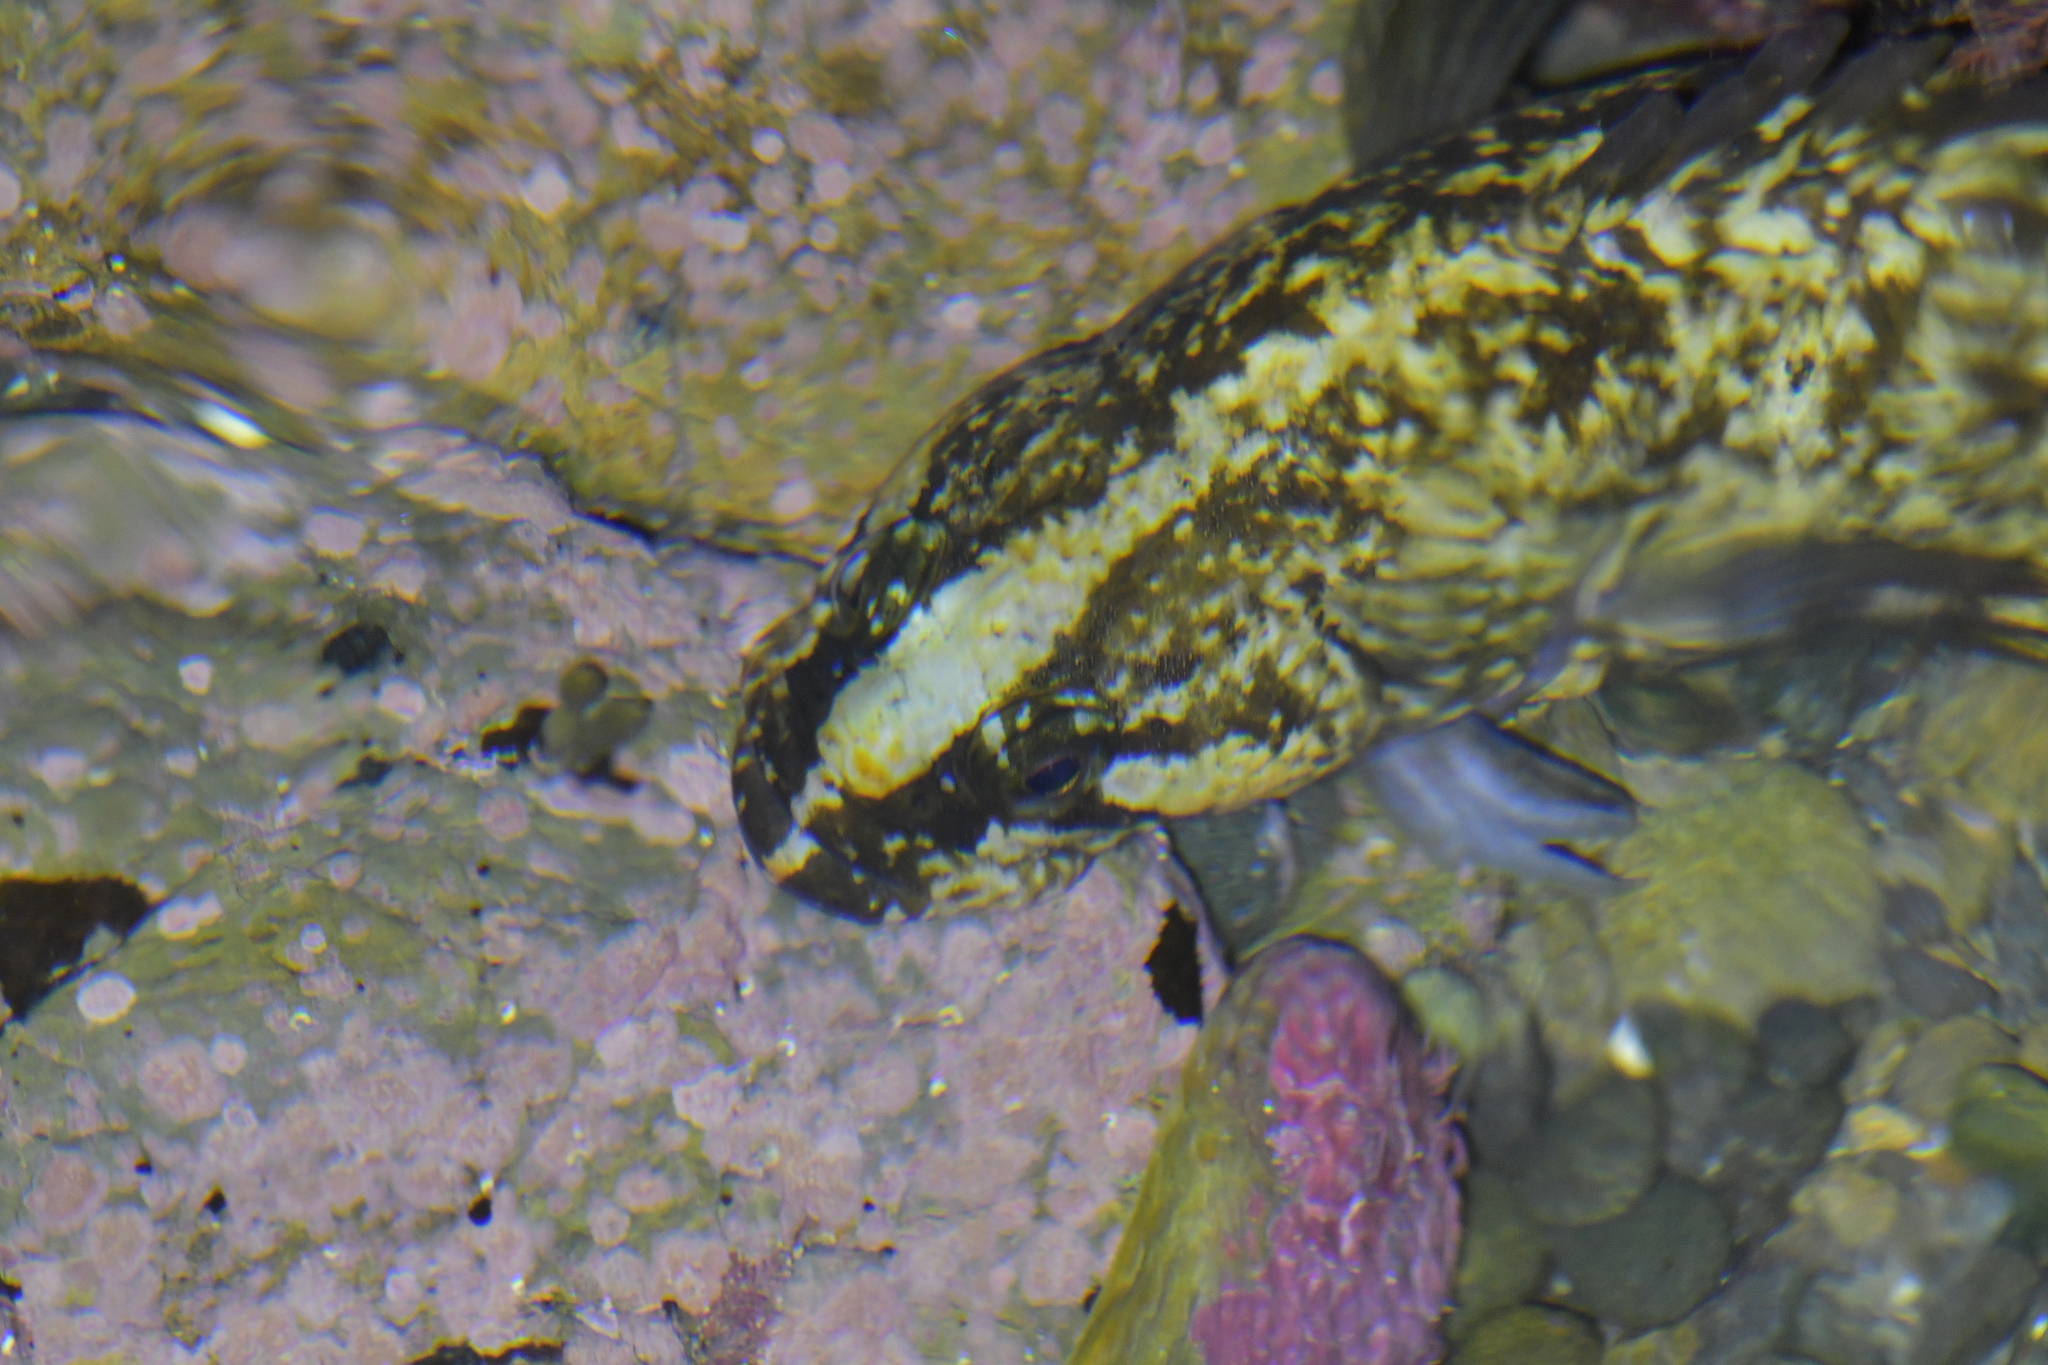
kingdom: Animalia
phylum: Chordata
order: Perciformes
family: Plesiopidae
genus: Acanthoclinus
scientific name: Acanthoclinus fuscus
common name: Olive rockfish
